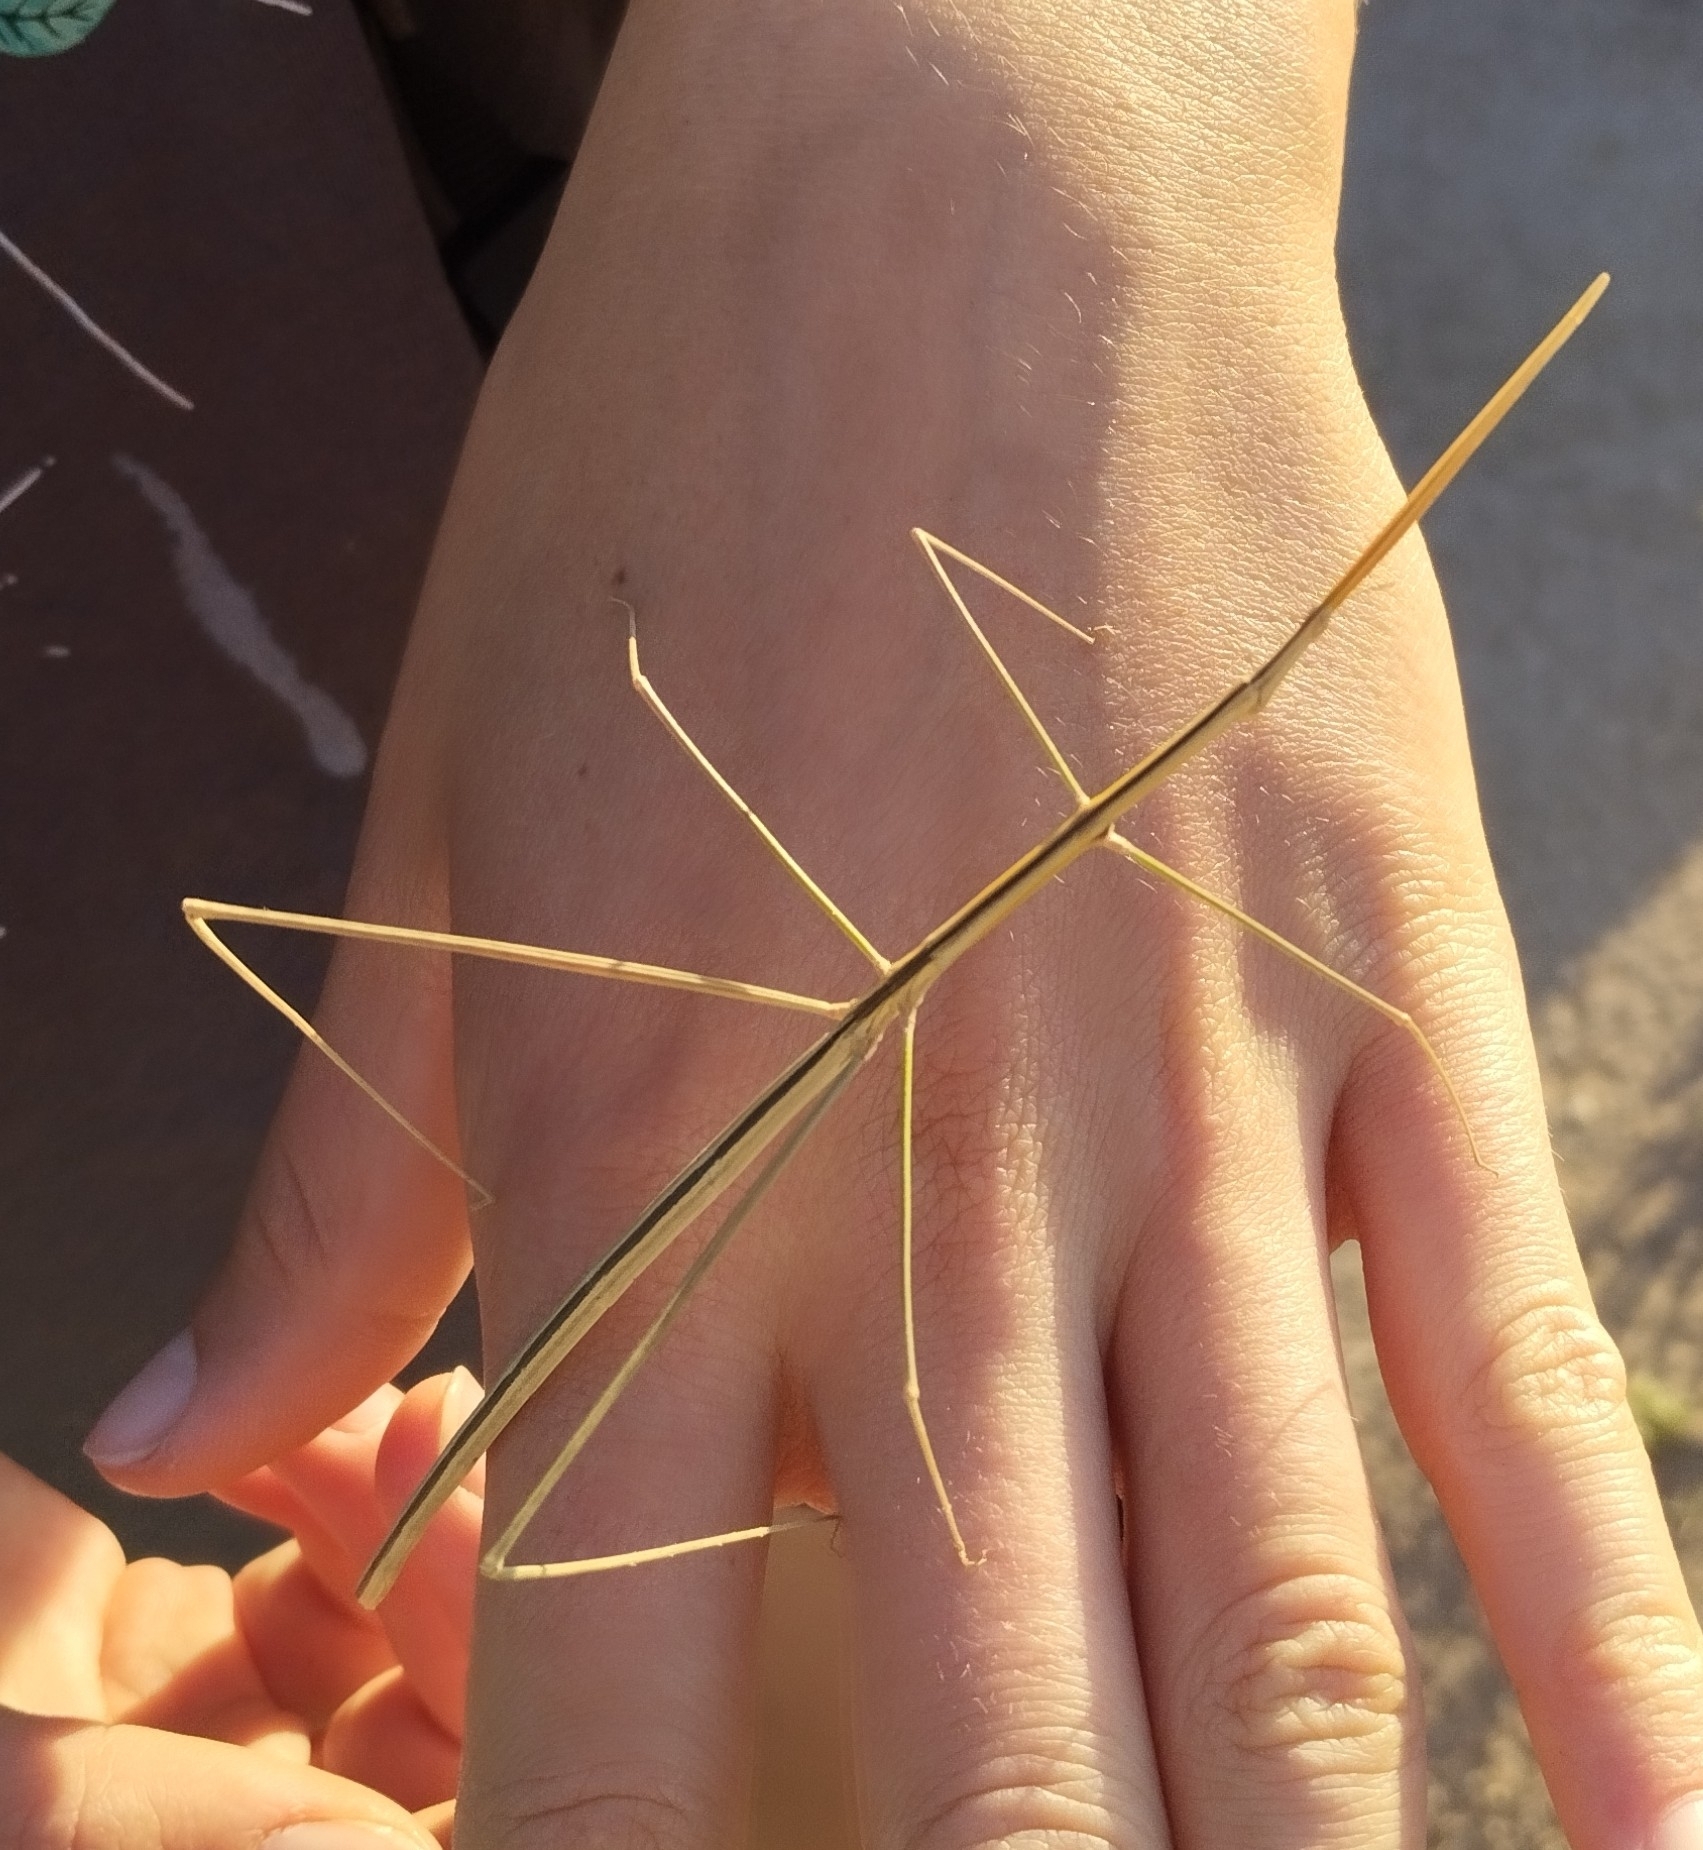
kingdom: Animalia
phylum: Arthropoda
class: Insecta
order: Orthoptera
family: Proscopiidae
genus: Carphoproscopia
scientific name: Carphoproscopia lancea
